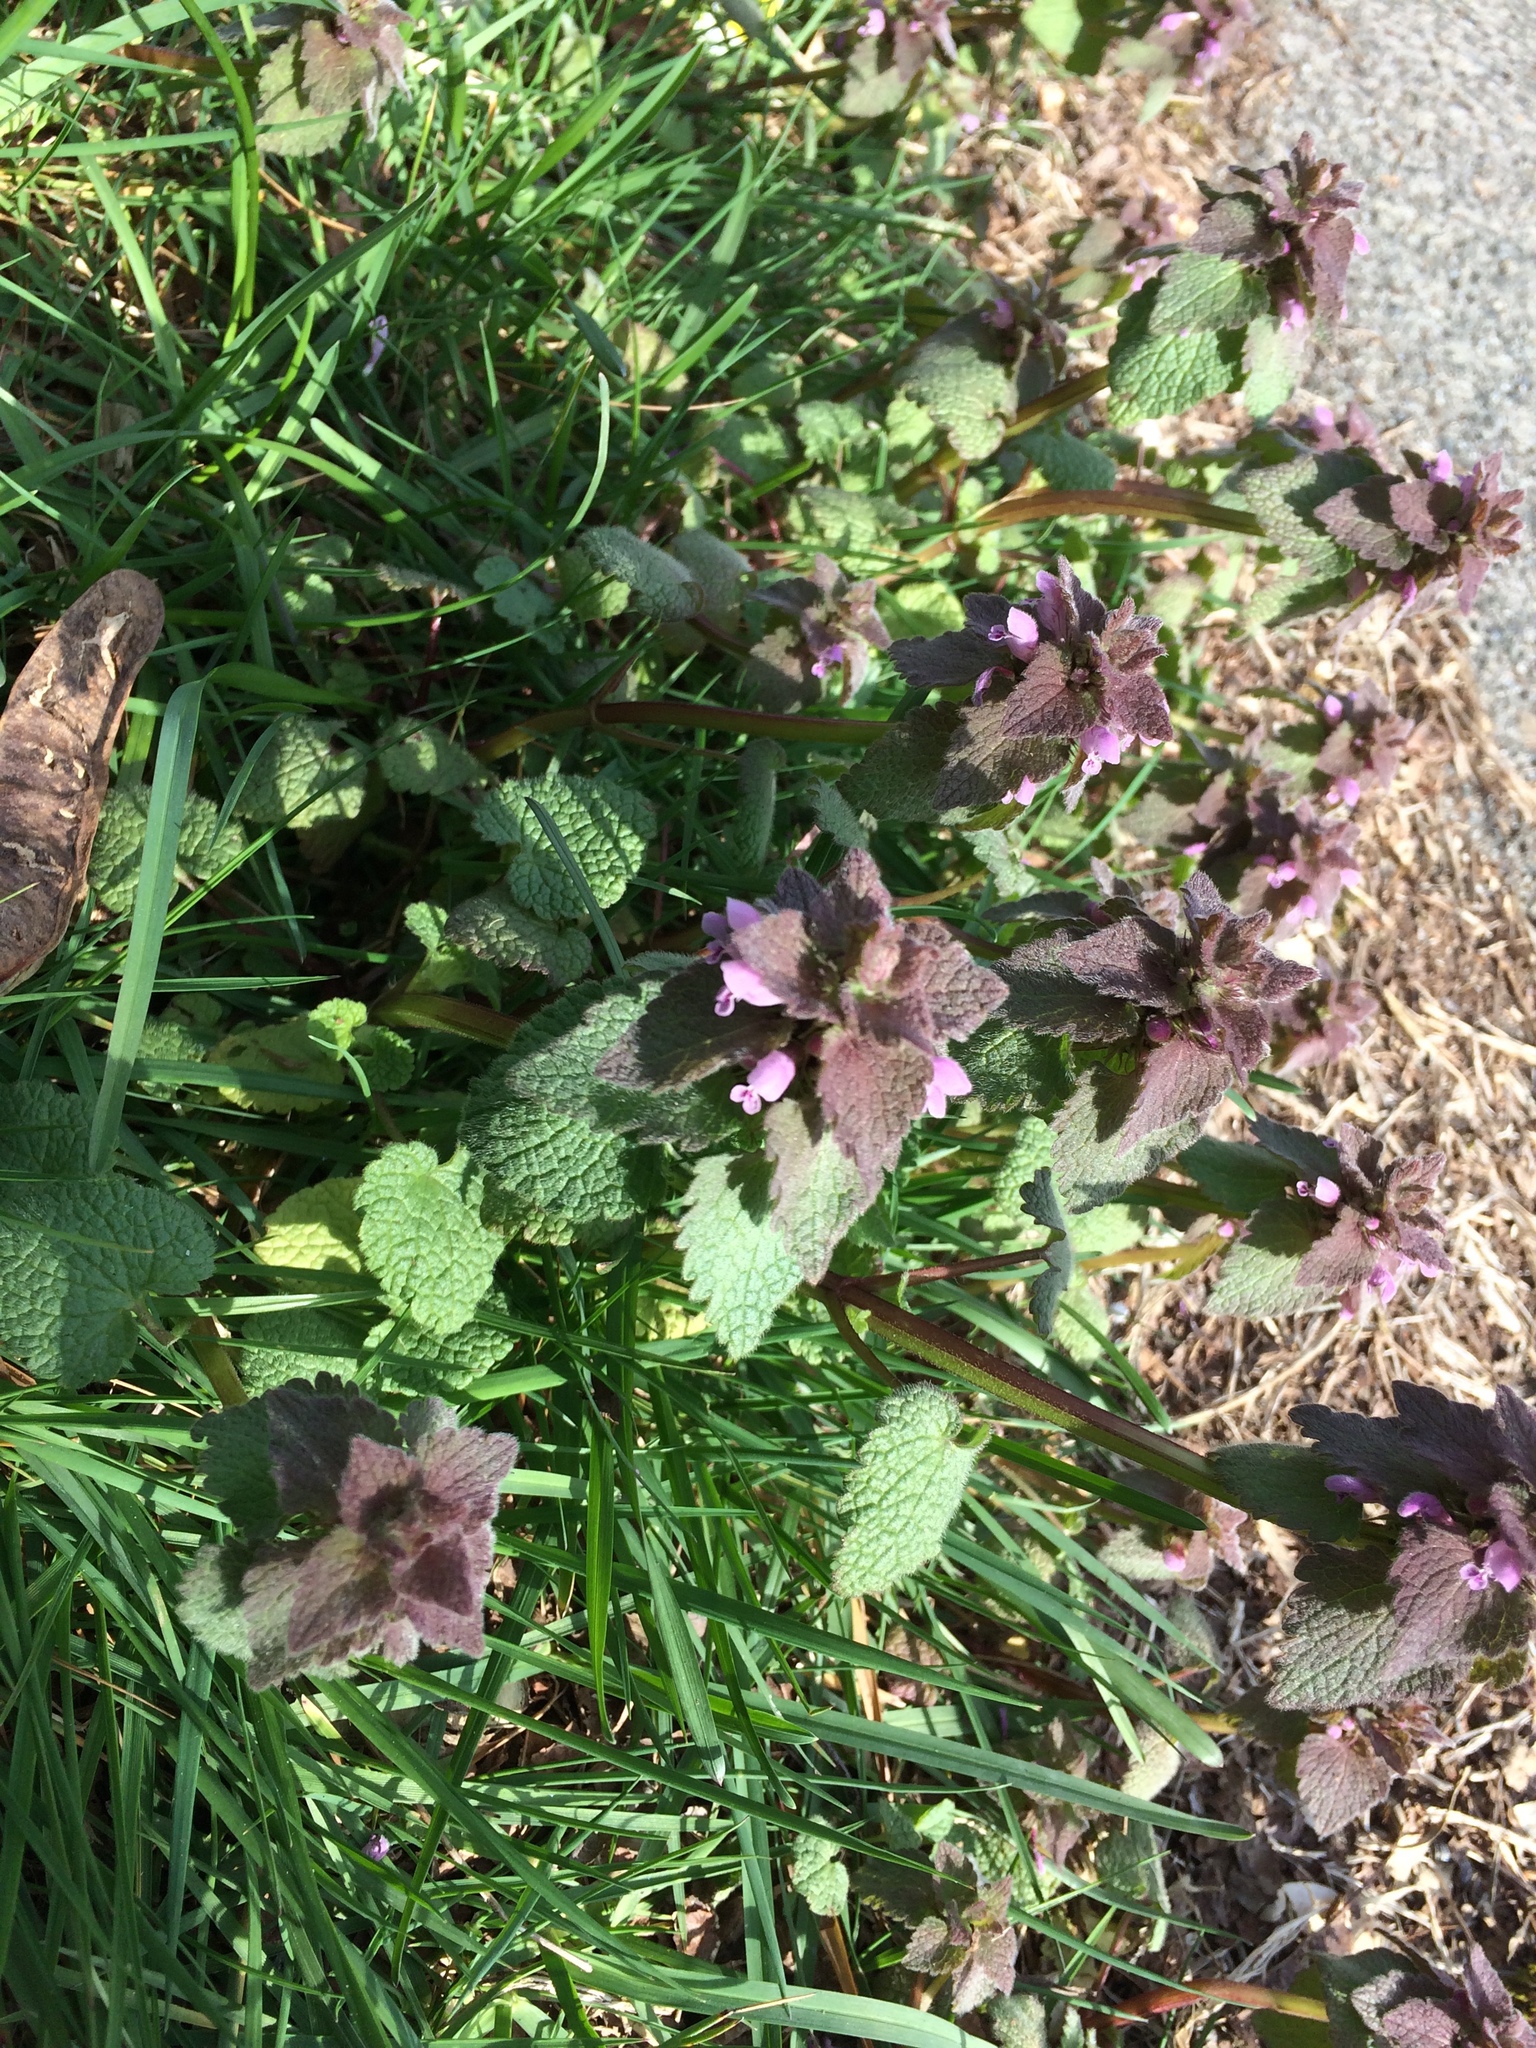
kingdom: Plantae
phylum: Tracheophyta
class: Magnoliopsida
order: Lamiales
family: Lamiaceae
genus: Lamium
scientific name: Lamium purpureum
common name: Red dead-nettle
